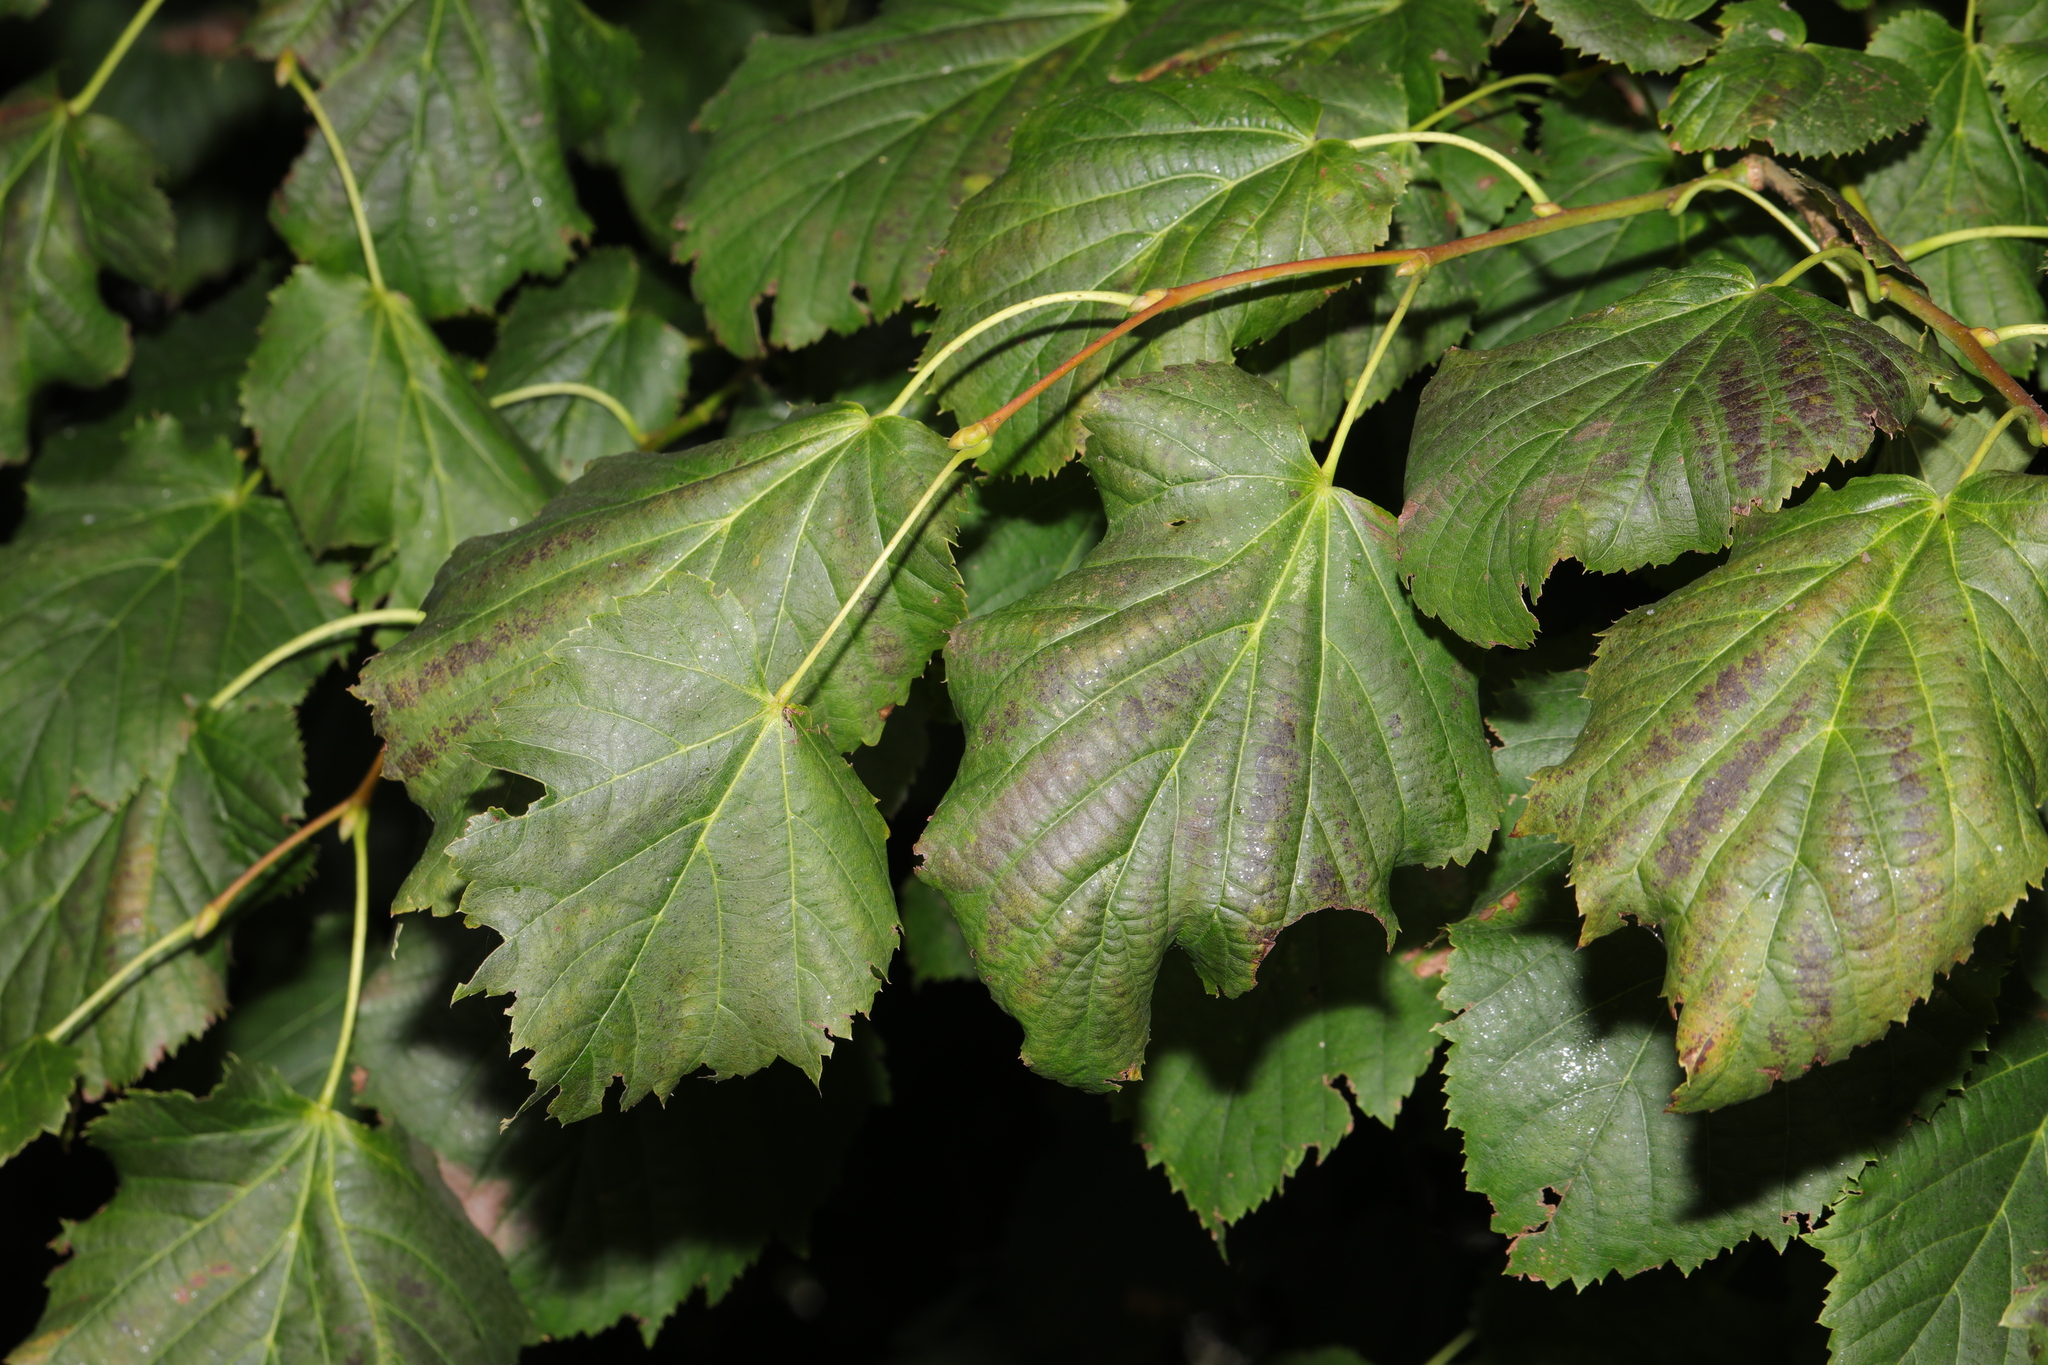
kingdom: Plantae
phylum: Tracheophyta
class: Magnoliopsida
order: Malvales
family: Malvaceae
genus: Tilia
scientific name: Tilia europaea
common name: European linden
